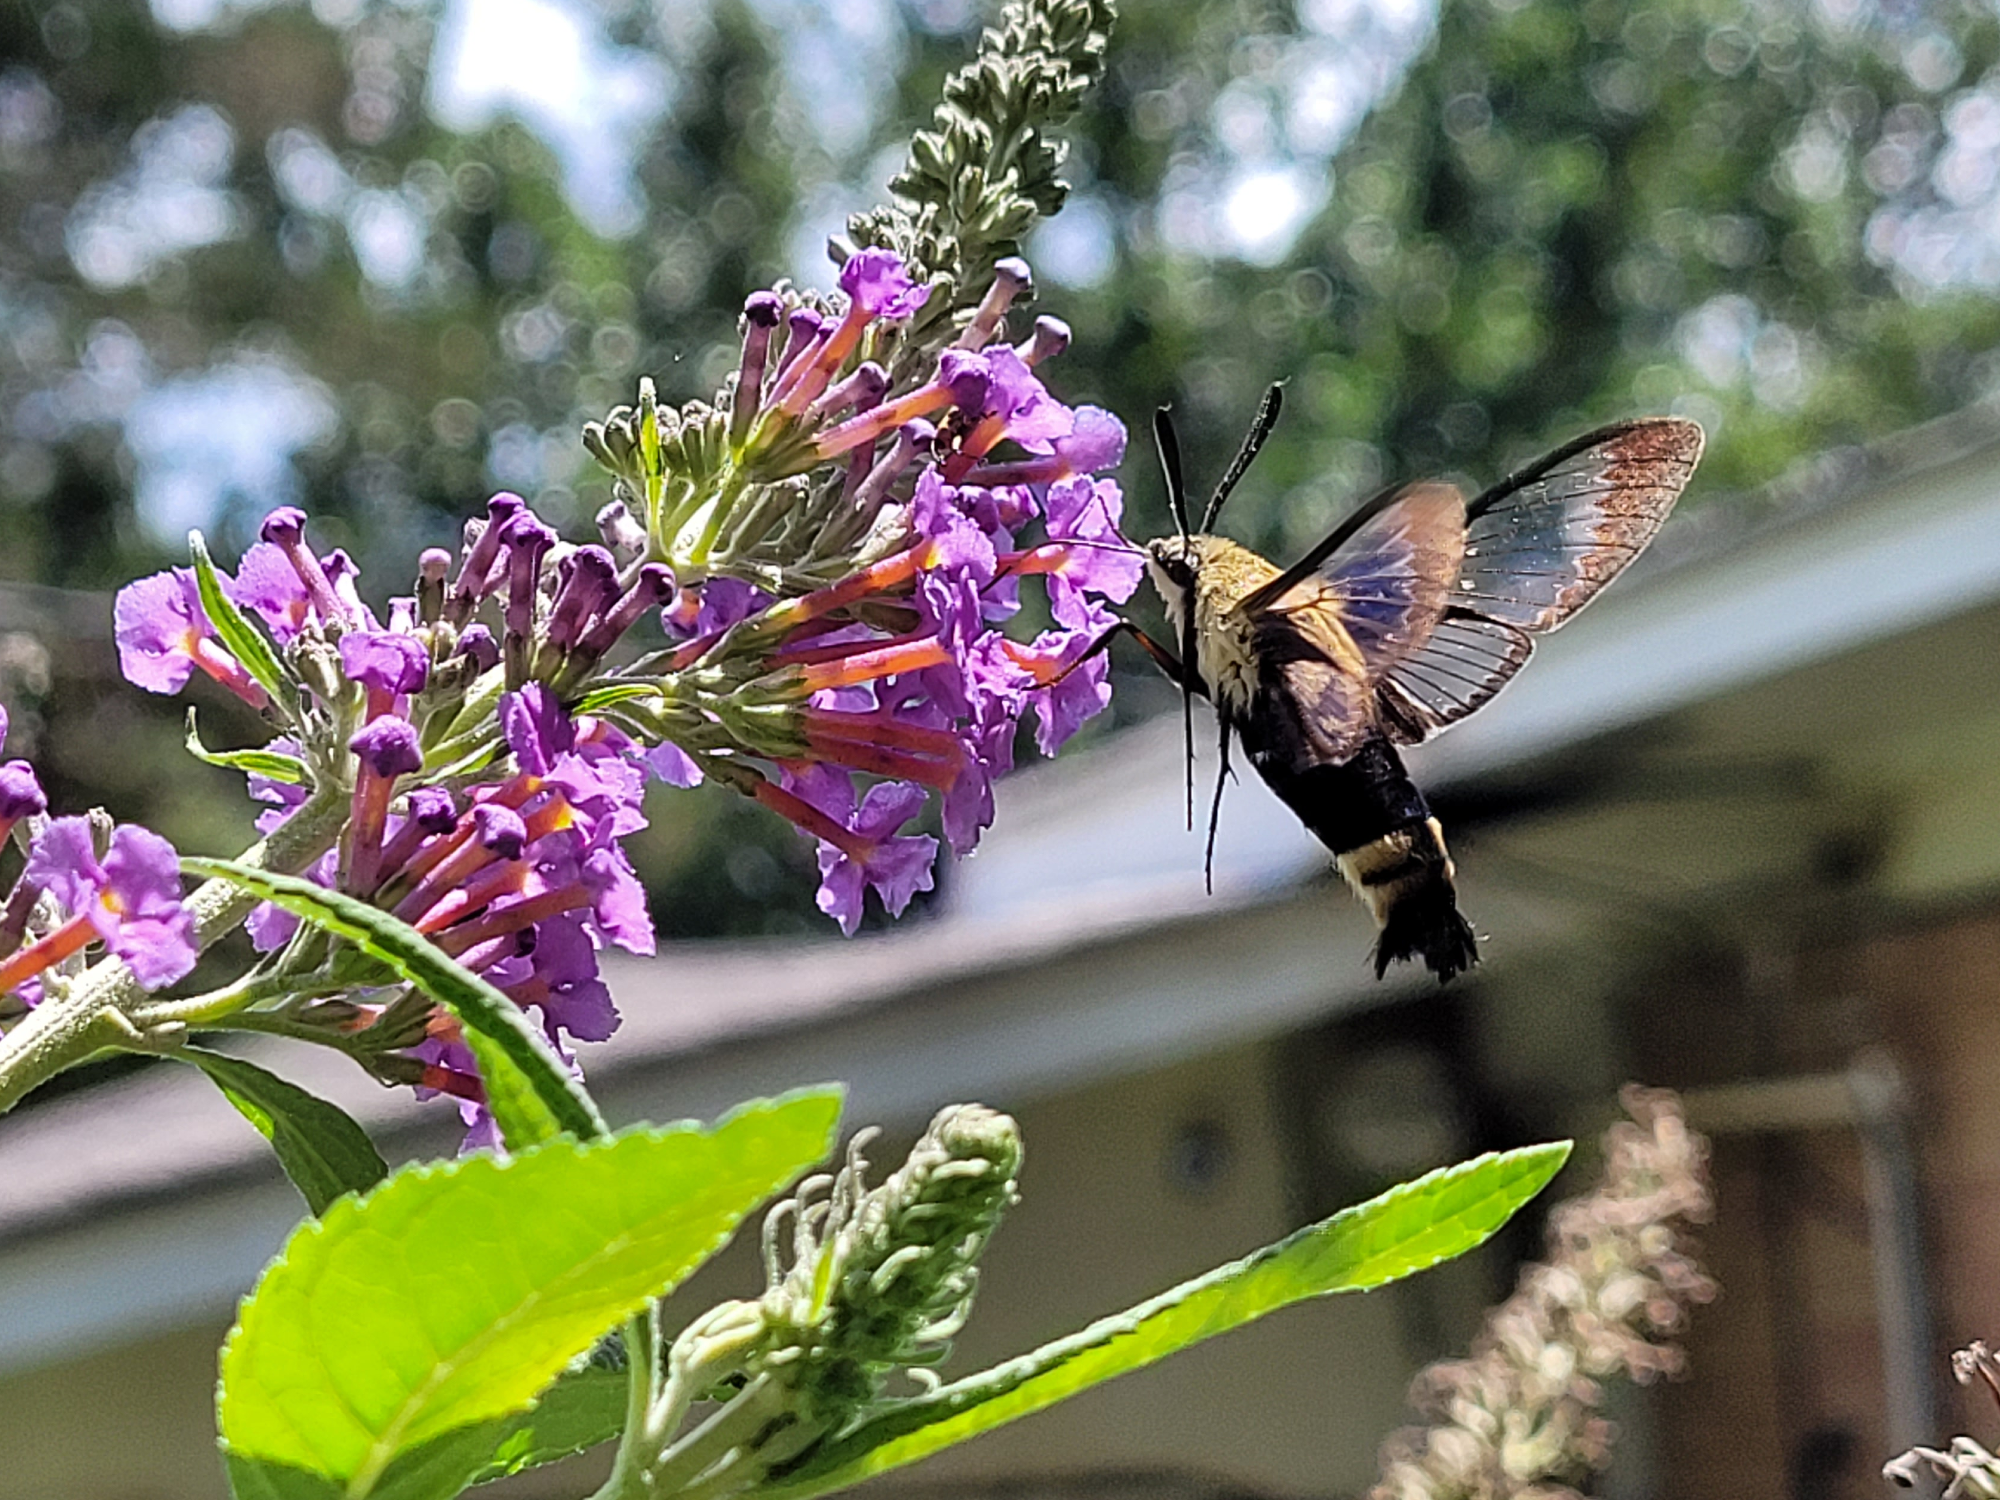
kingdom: Animalia
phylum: Arthropoda
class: Insecta
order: Lepidoptera
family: Sphingidae
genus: Hemaris
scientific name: Hemaris diffinis
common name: Bumblebee moth
